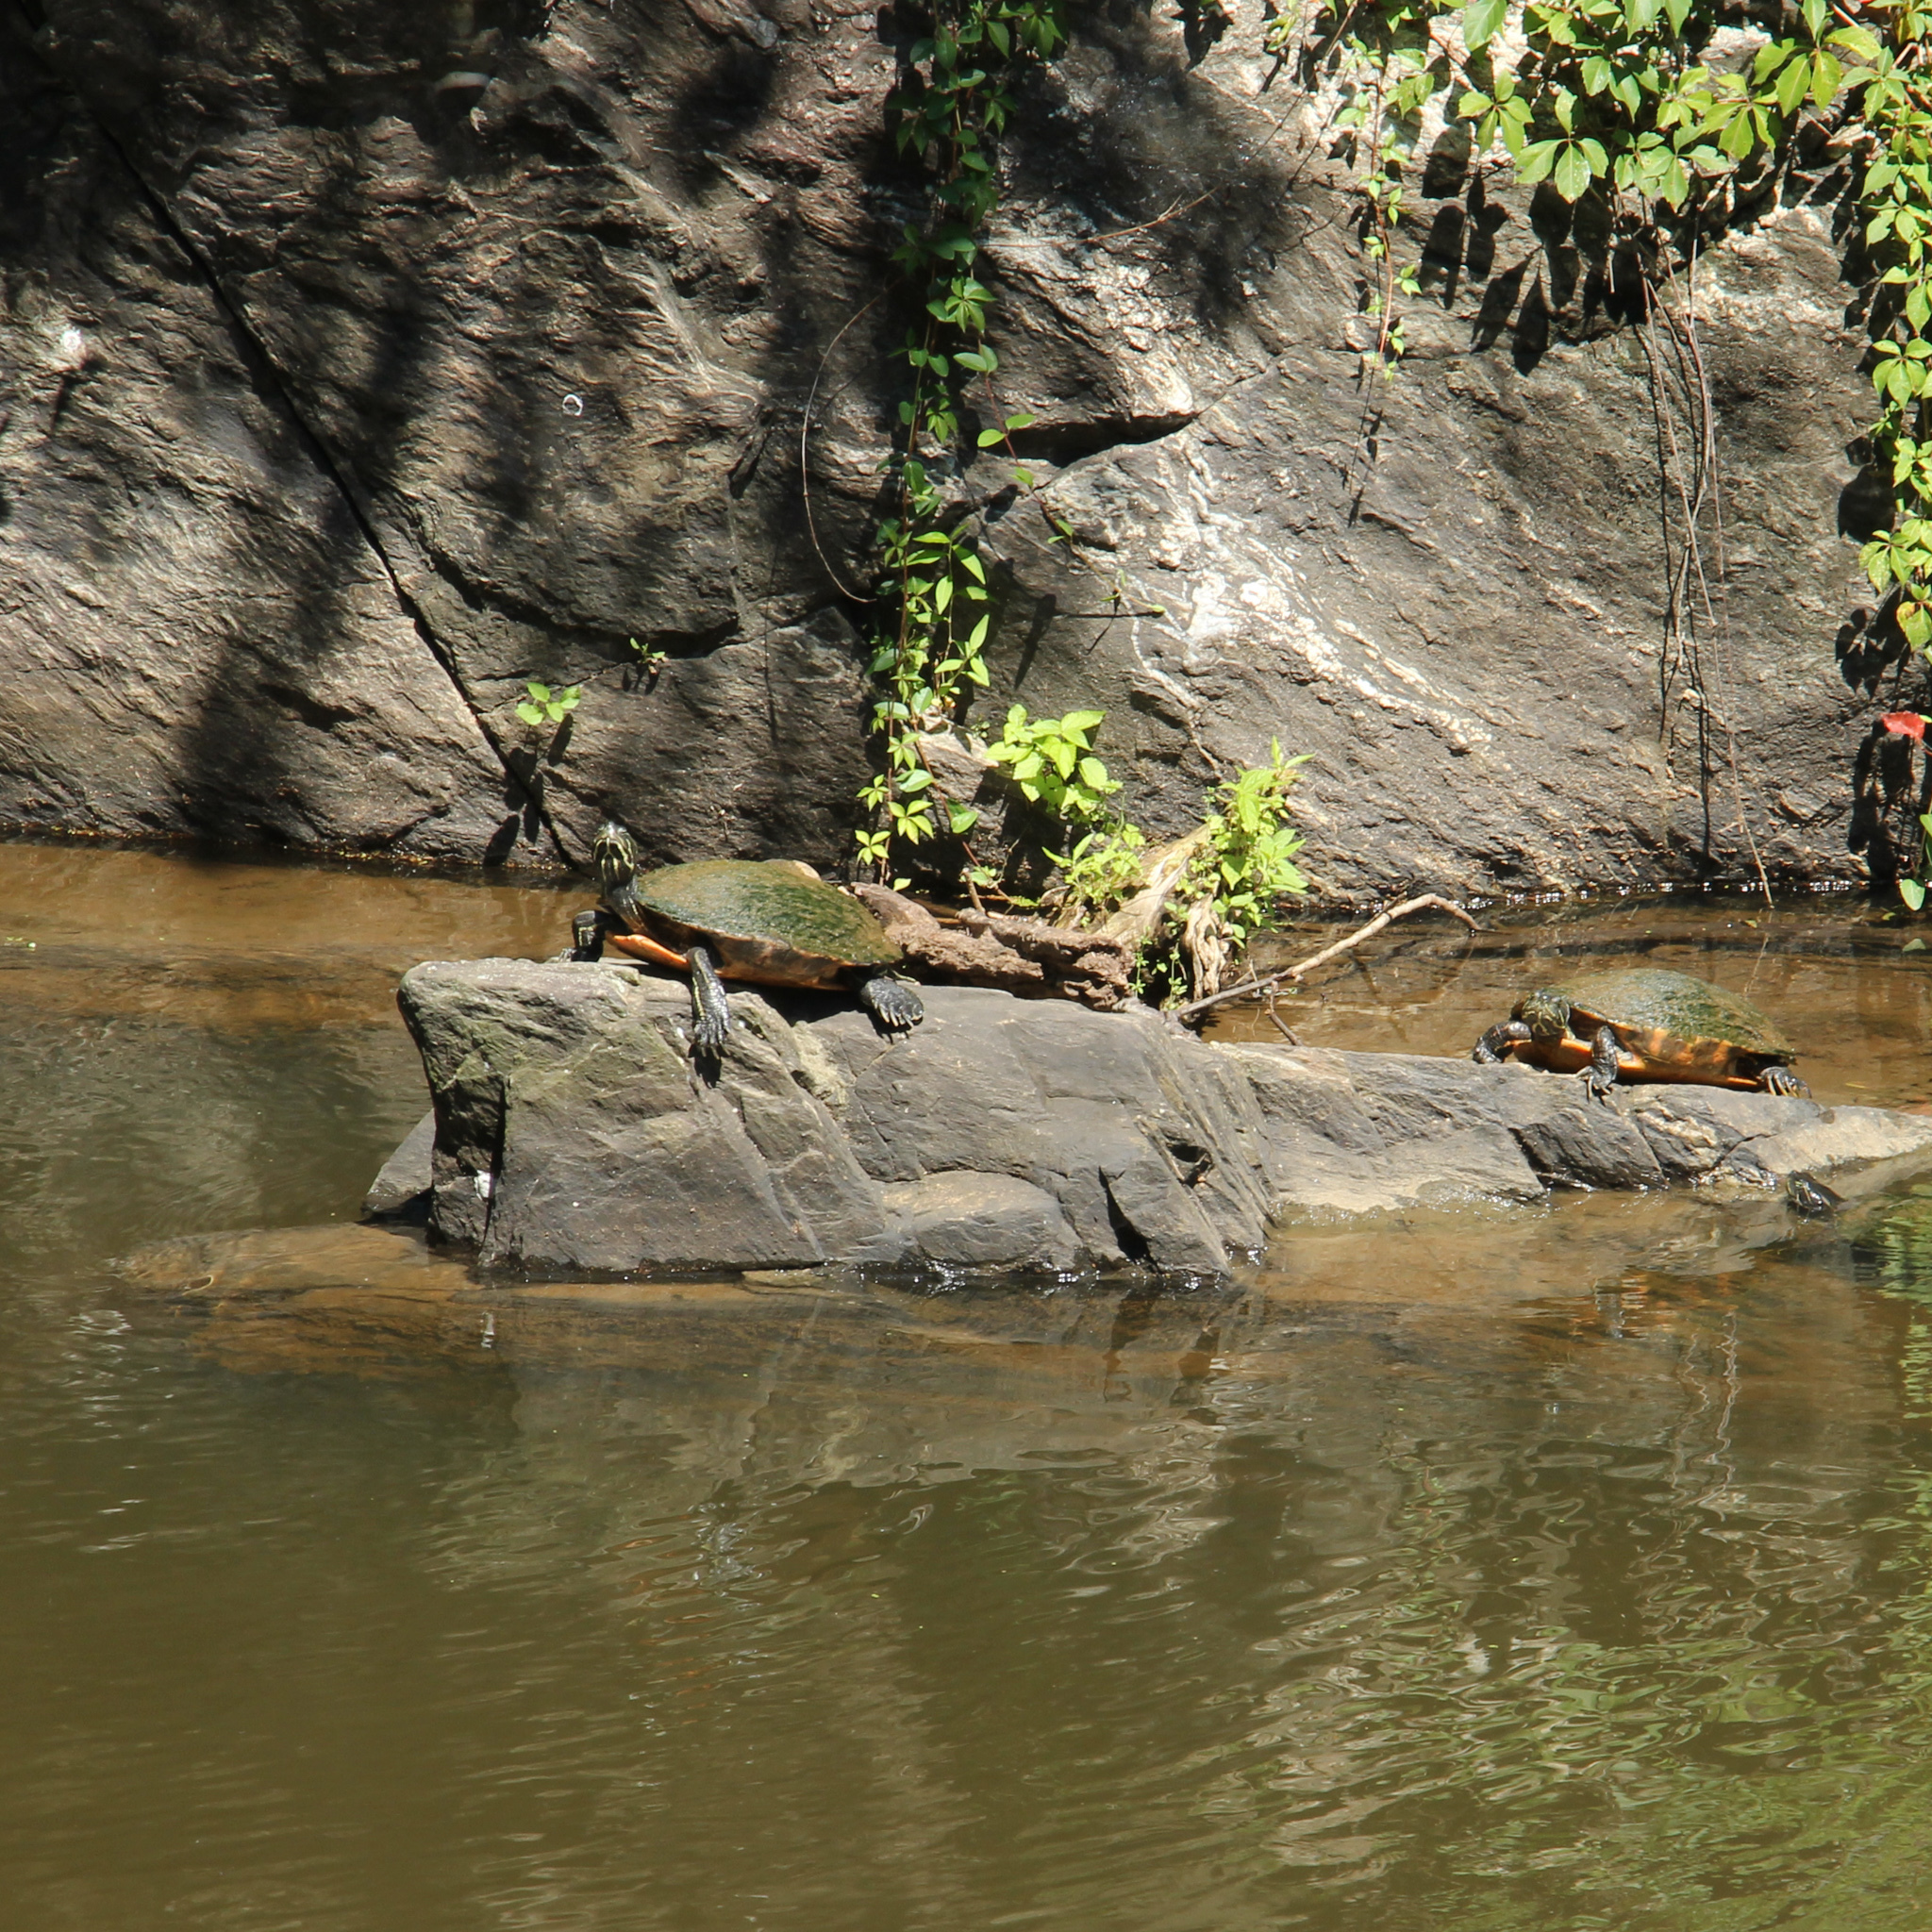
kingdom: Animalia
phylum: Chordata
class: Testudines
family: Emydidae
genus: Pseudemys
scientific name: Pseudemys rubriventris
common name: American red-bellied turtle
